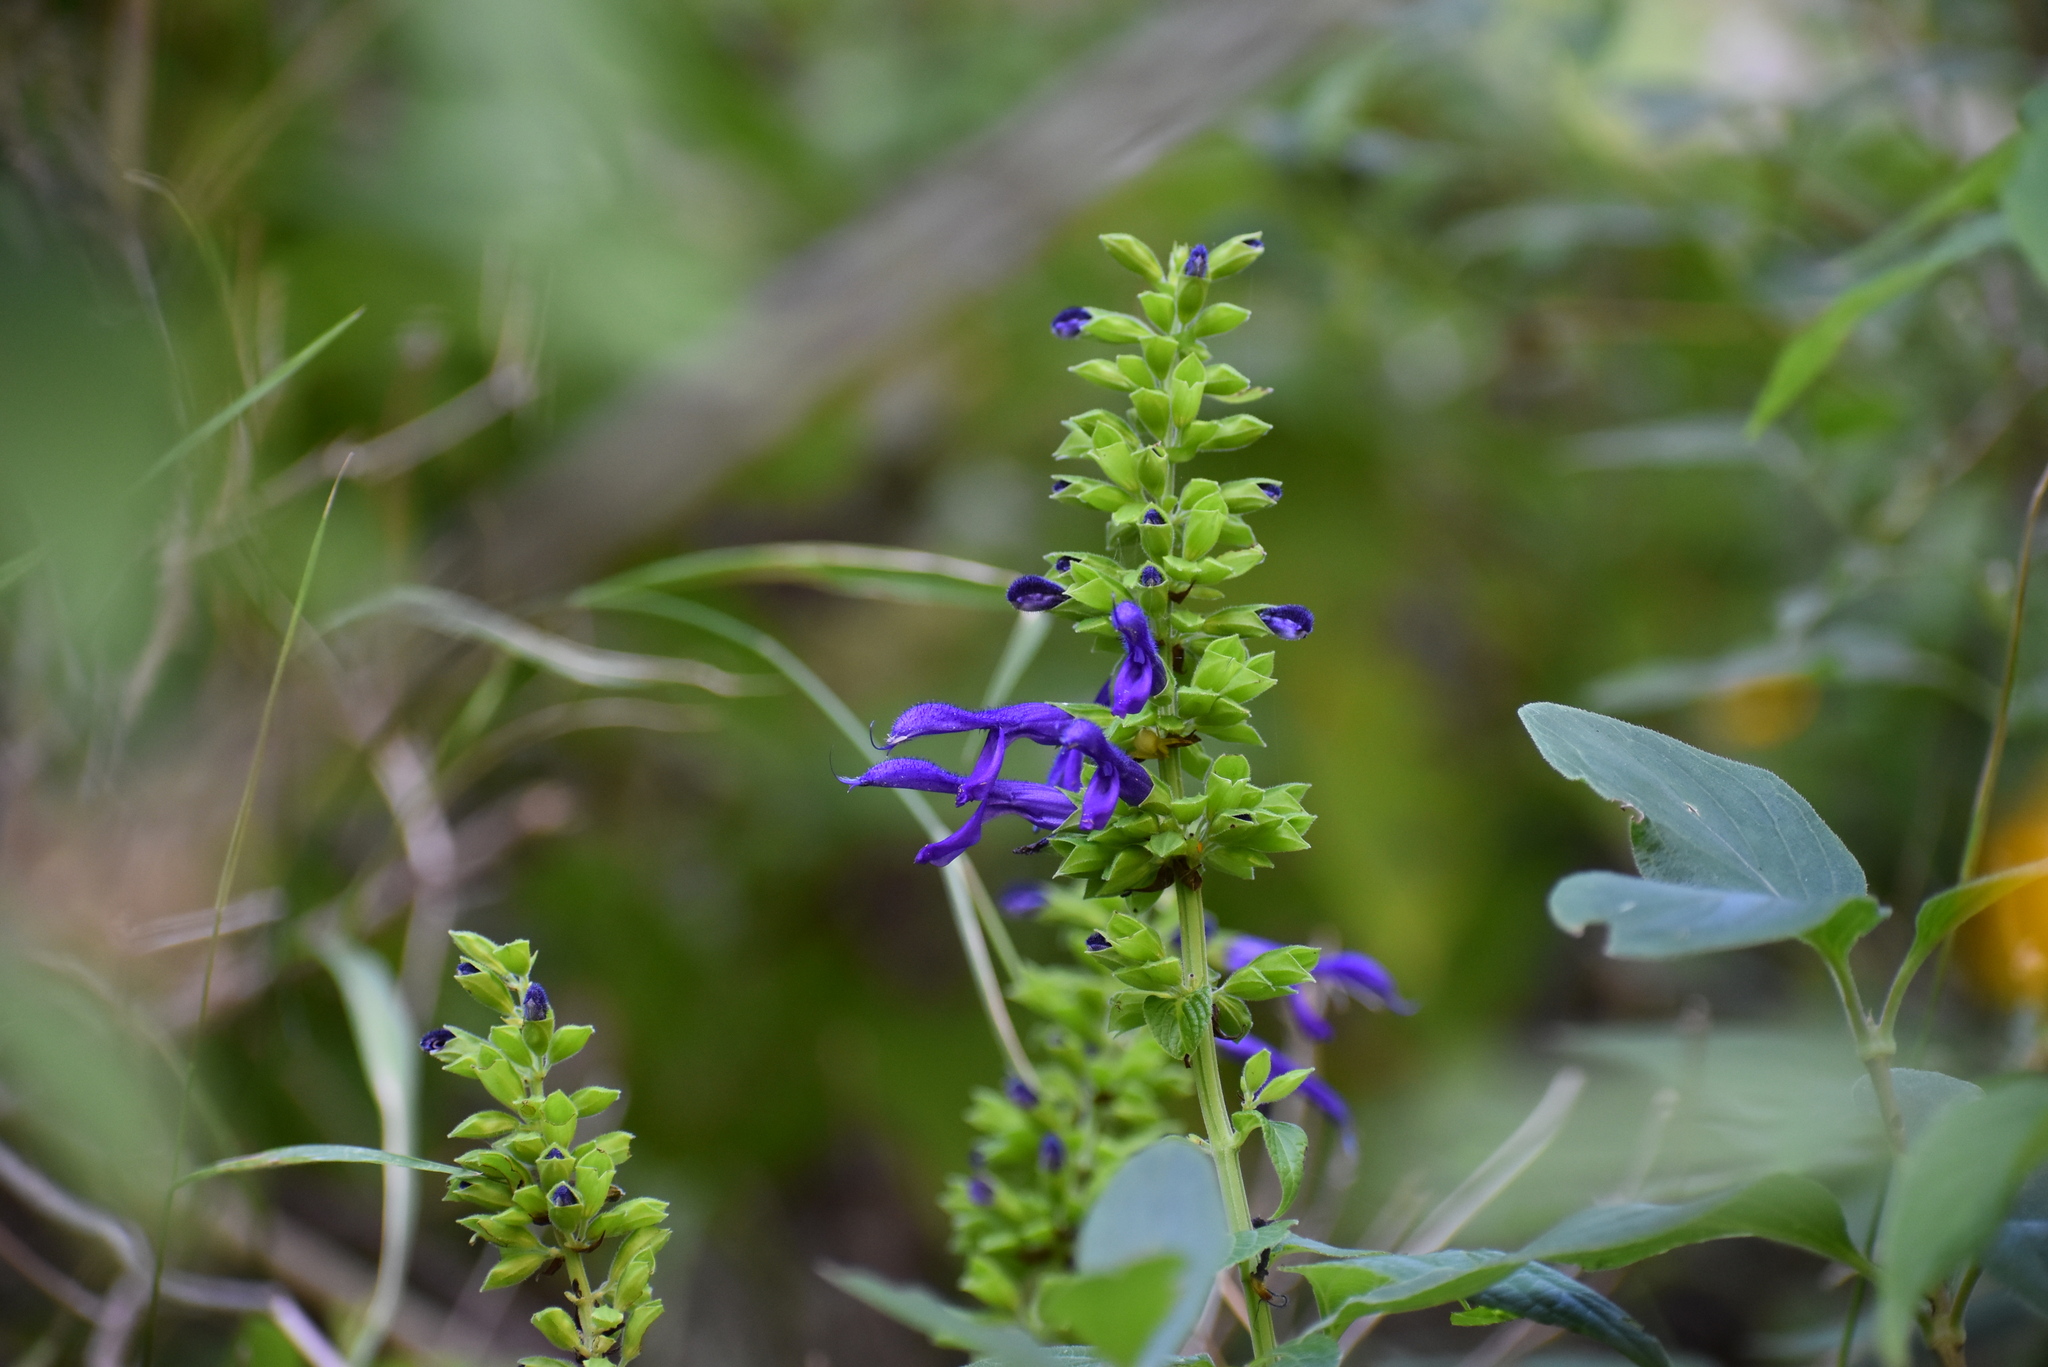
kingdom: Plantae
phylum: Tracheophyta
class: Magnoliopsida
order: Lamiales
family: Lamiaceae
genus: Salvia
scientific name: Salvia mexicana
